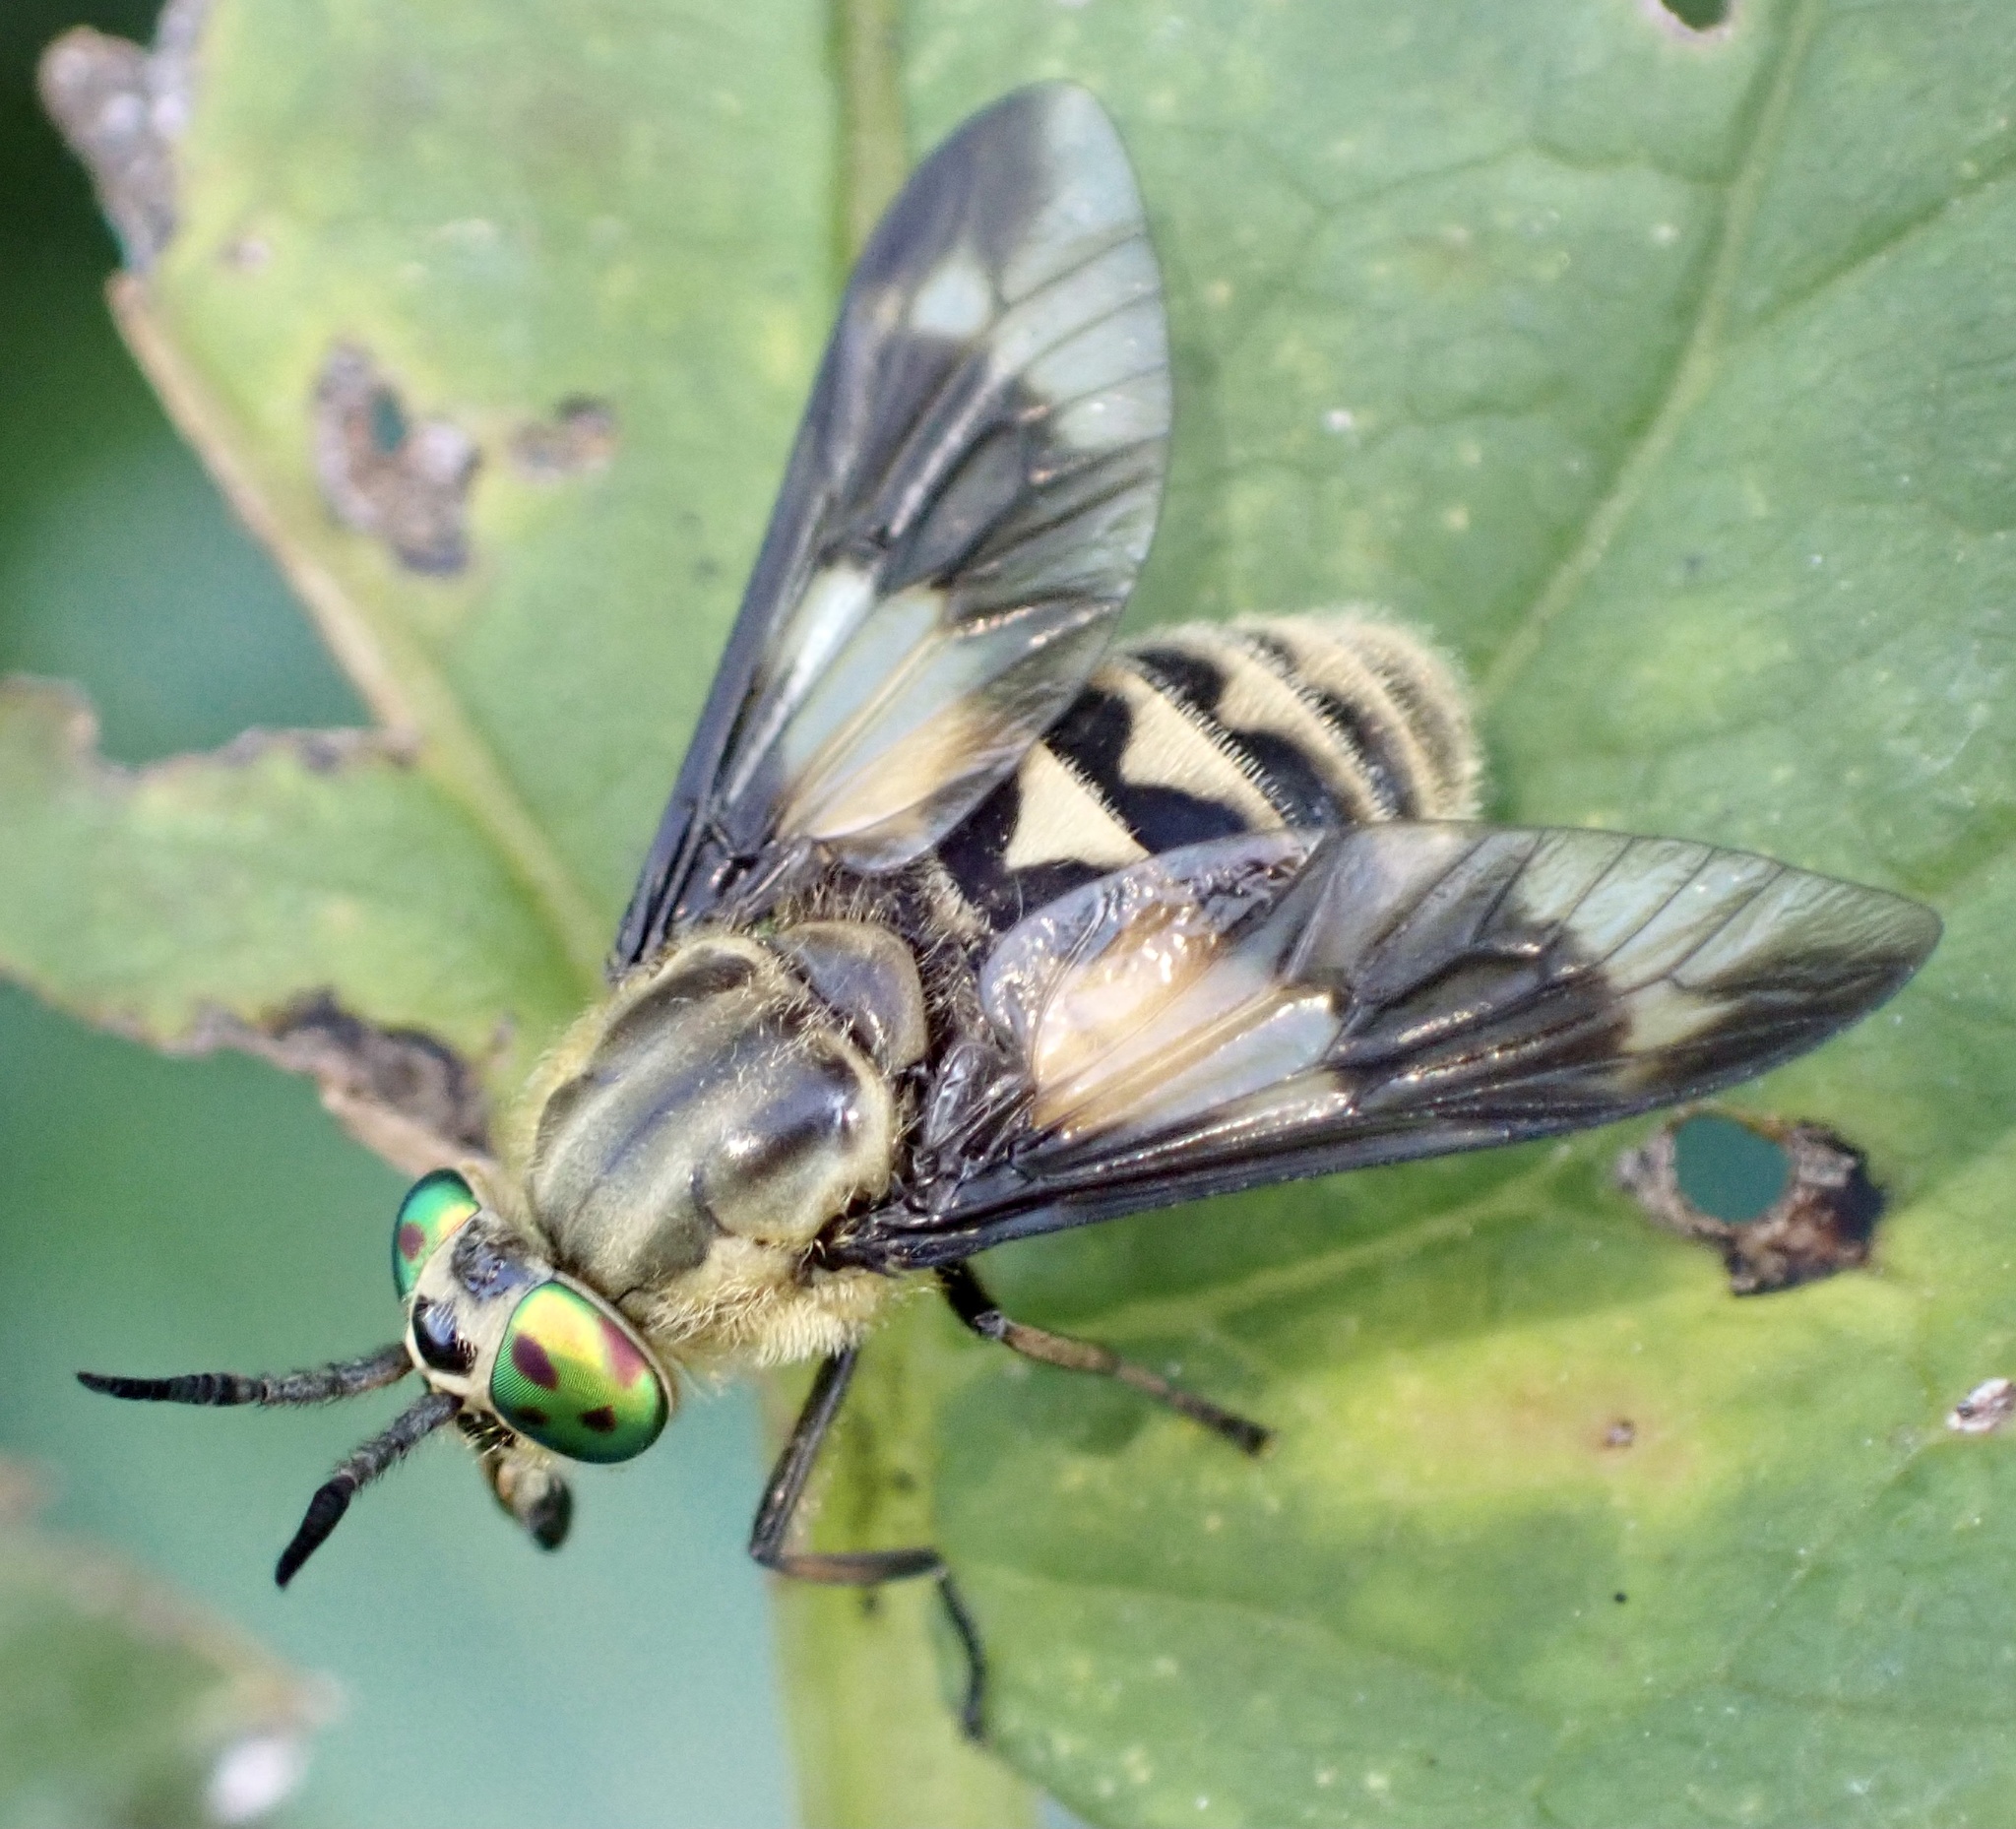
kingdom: Animalia
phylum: Arthropoda
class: Insecta
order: Diptera
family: Tabanidae
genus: Chrysops
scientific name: Chrysops relictus
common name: Twin-lobed deerfly
